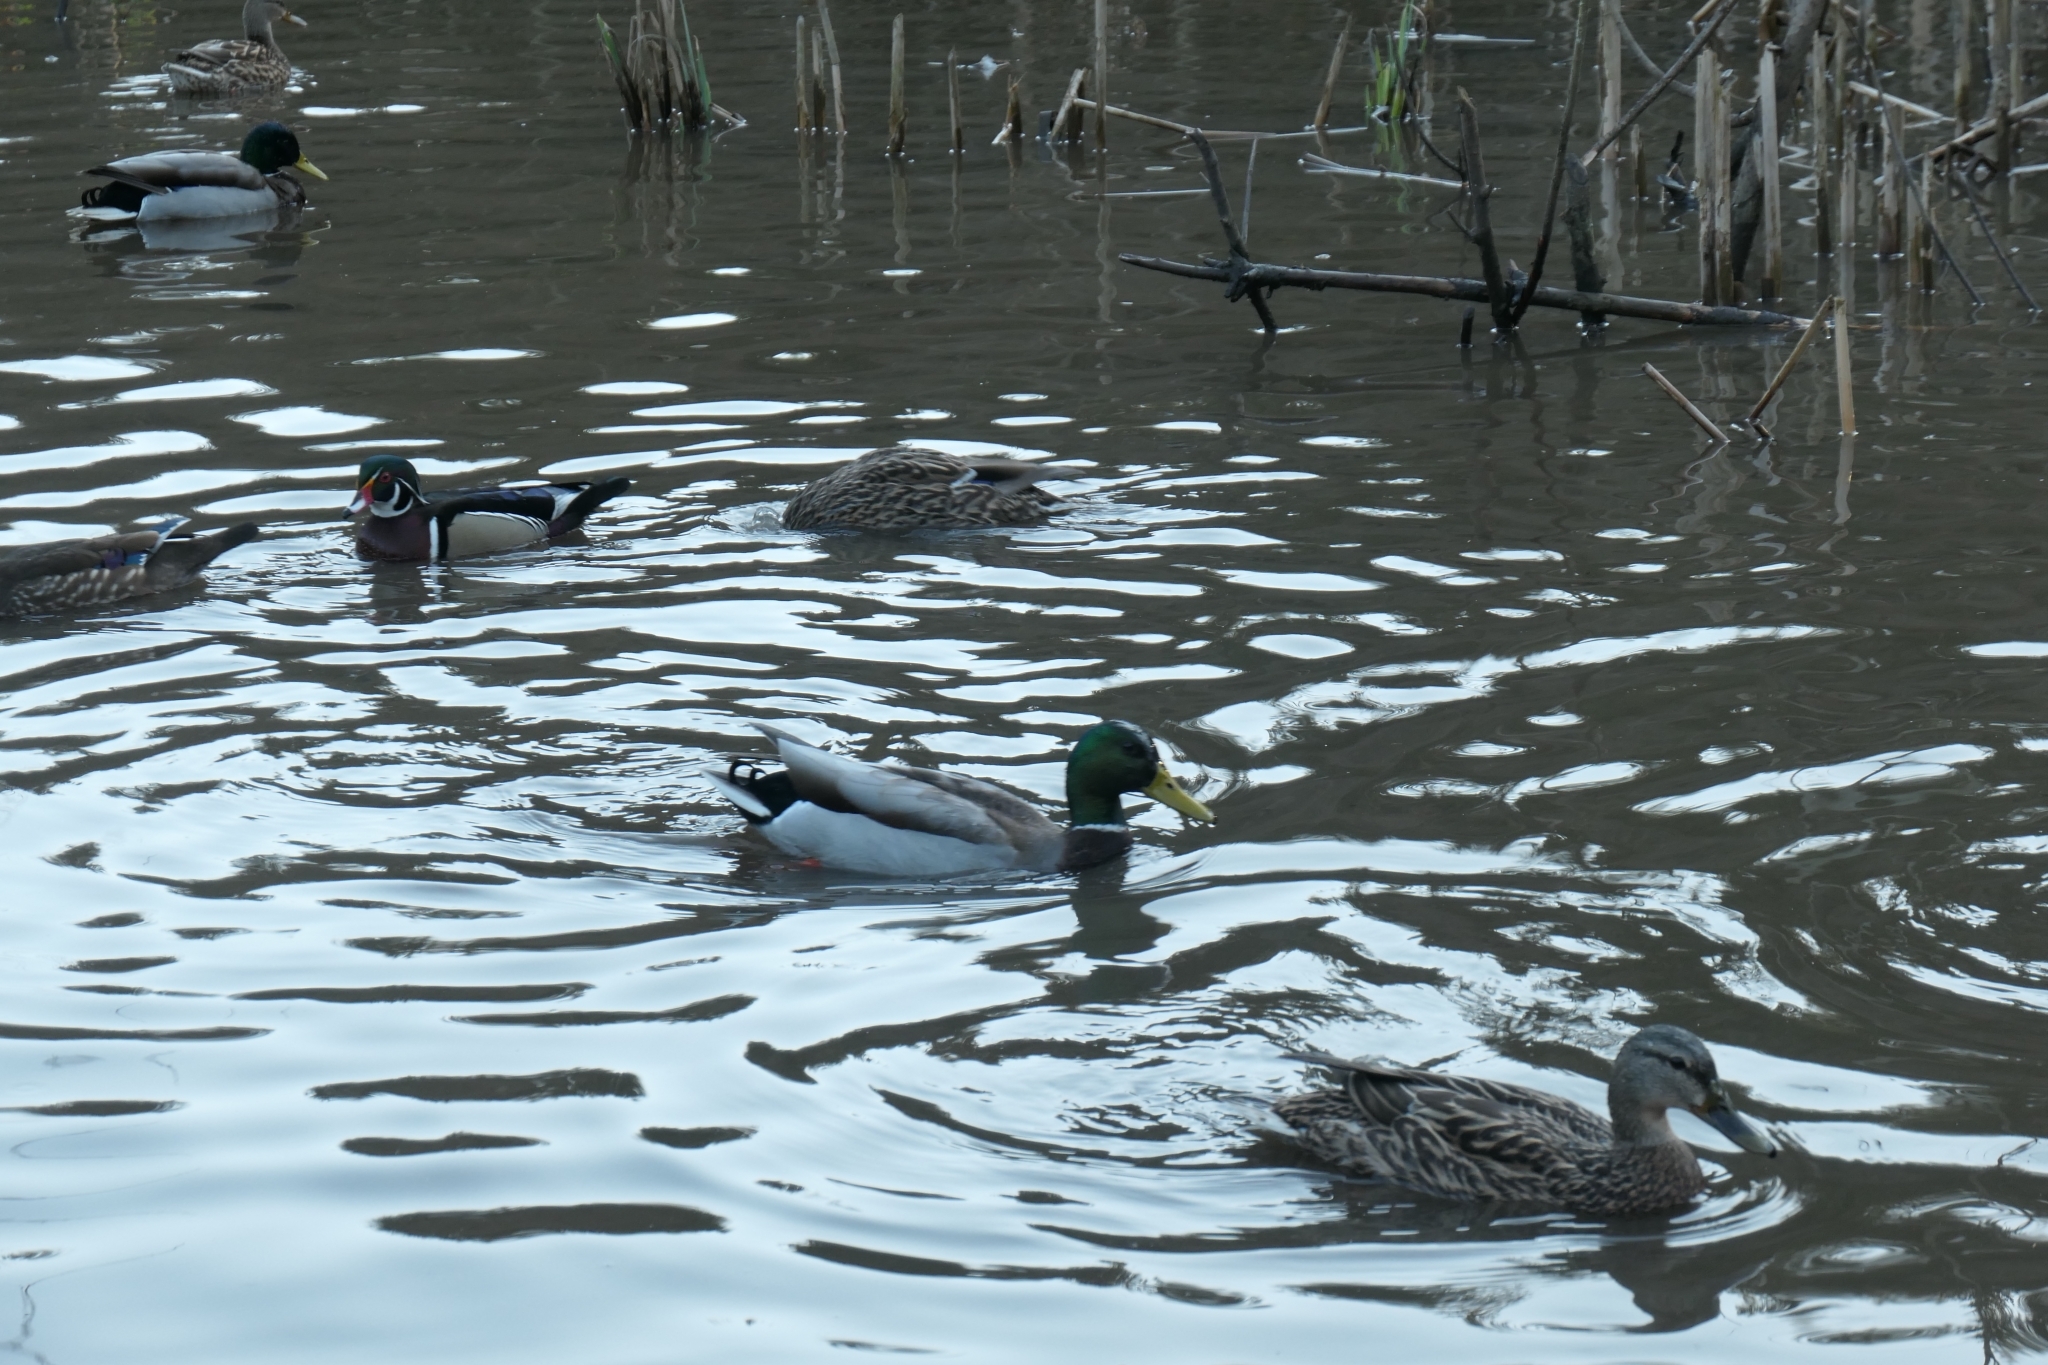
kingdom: Animalia
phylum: Chordata
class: Aves
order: Anseriformes
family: Anatidae
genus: Anas
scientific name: Anas platyrhynchos
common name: Mallard
